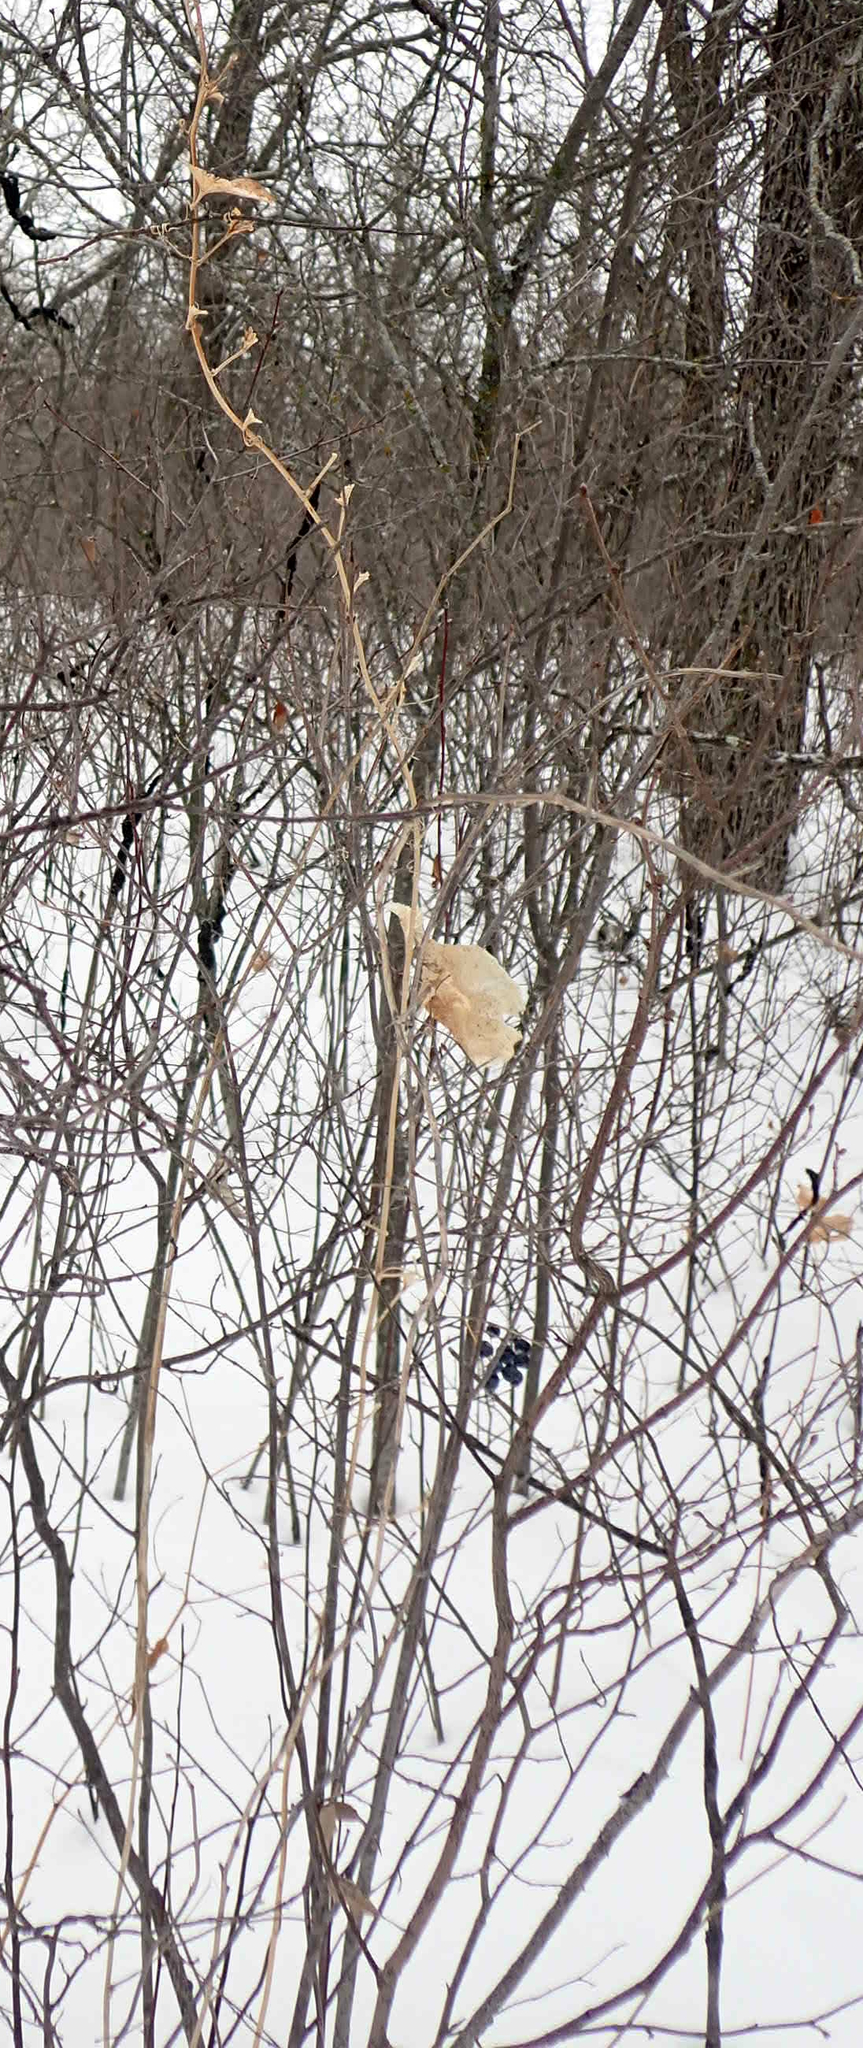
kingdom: Plantae
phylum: Tracheophyta
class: Liliopsida
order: Liliales
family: Smilacaceae
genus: Smilax
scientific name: Smilax lasioneura
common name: Blue ridge carrionflower
